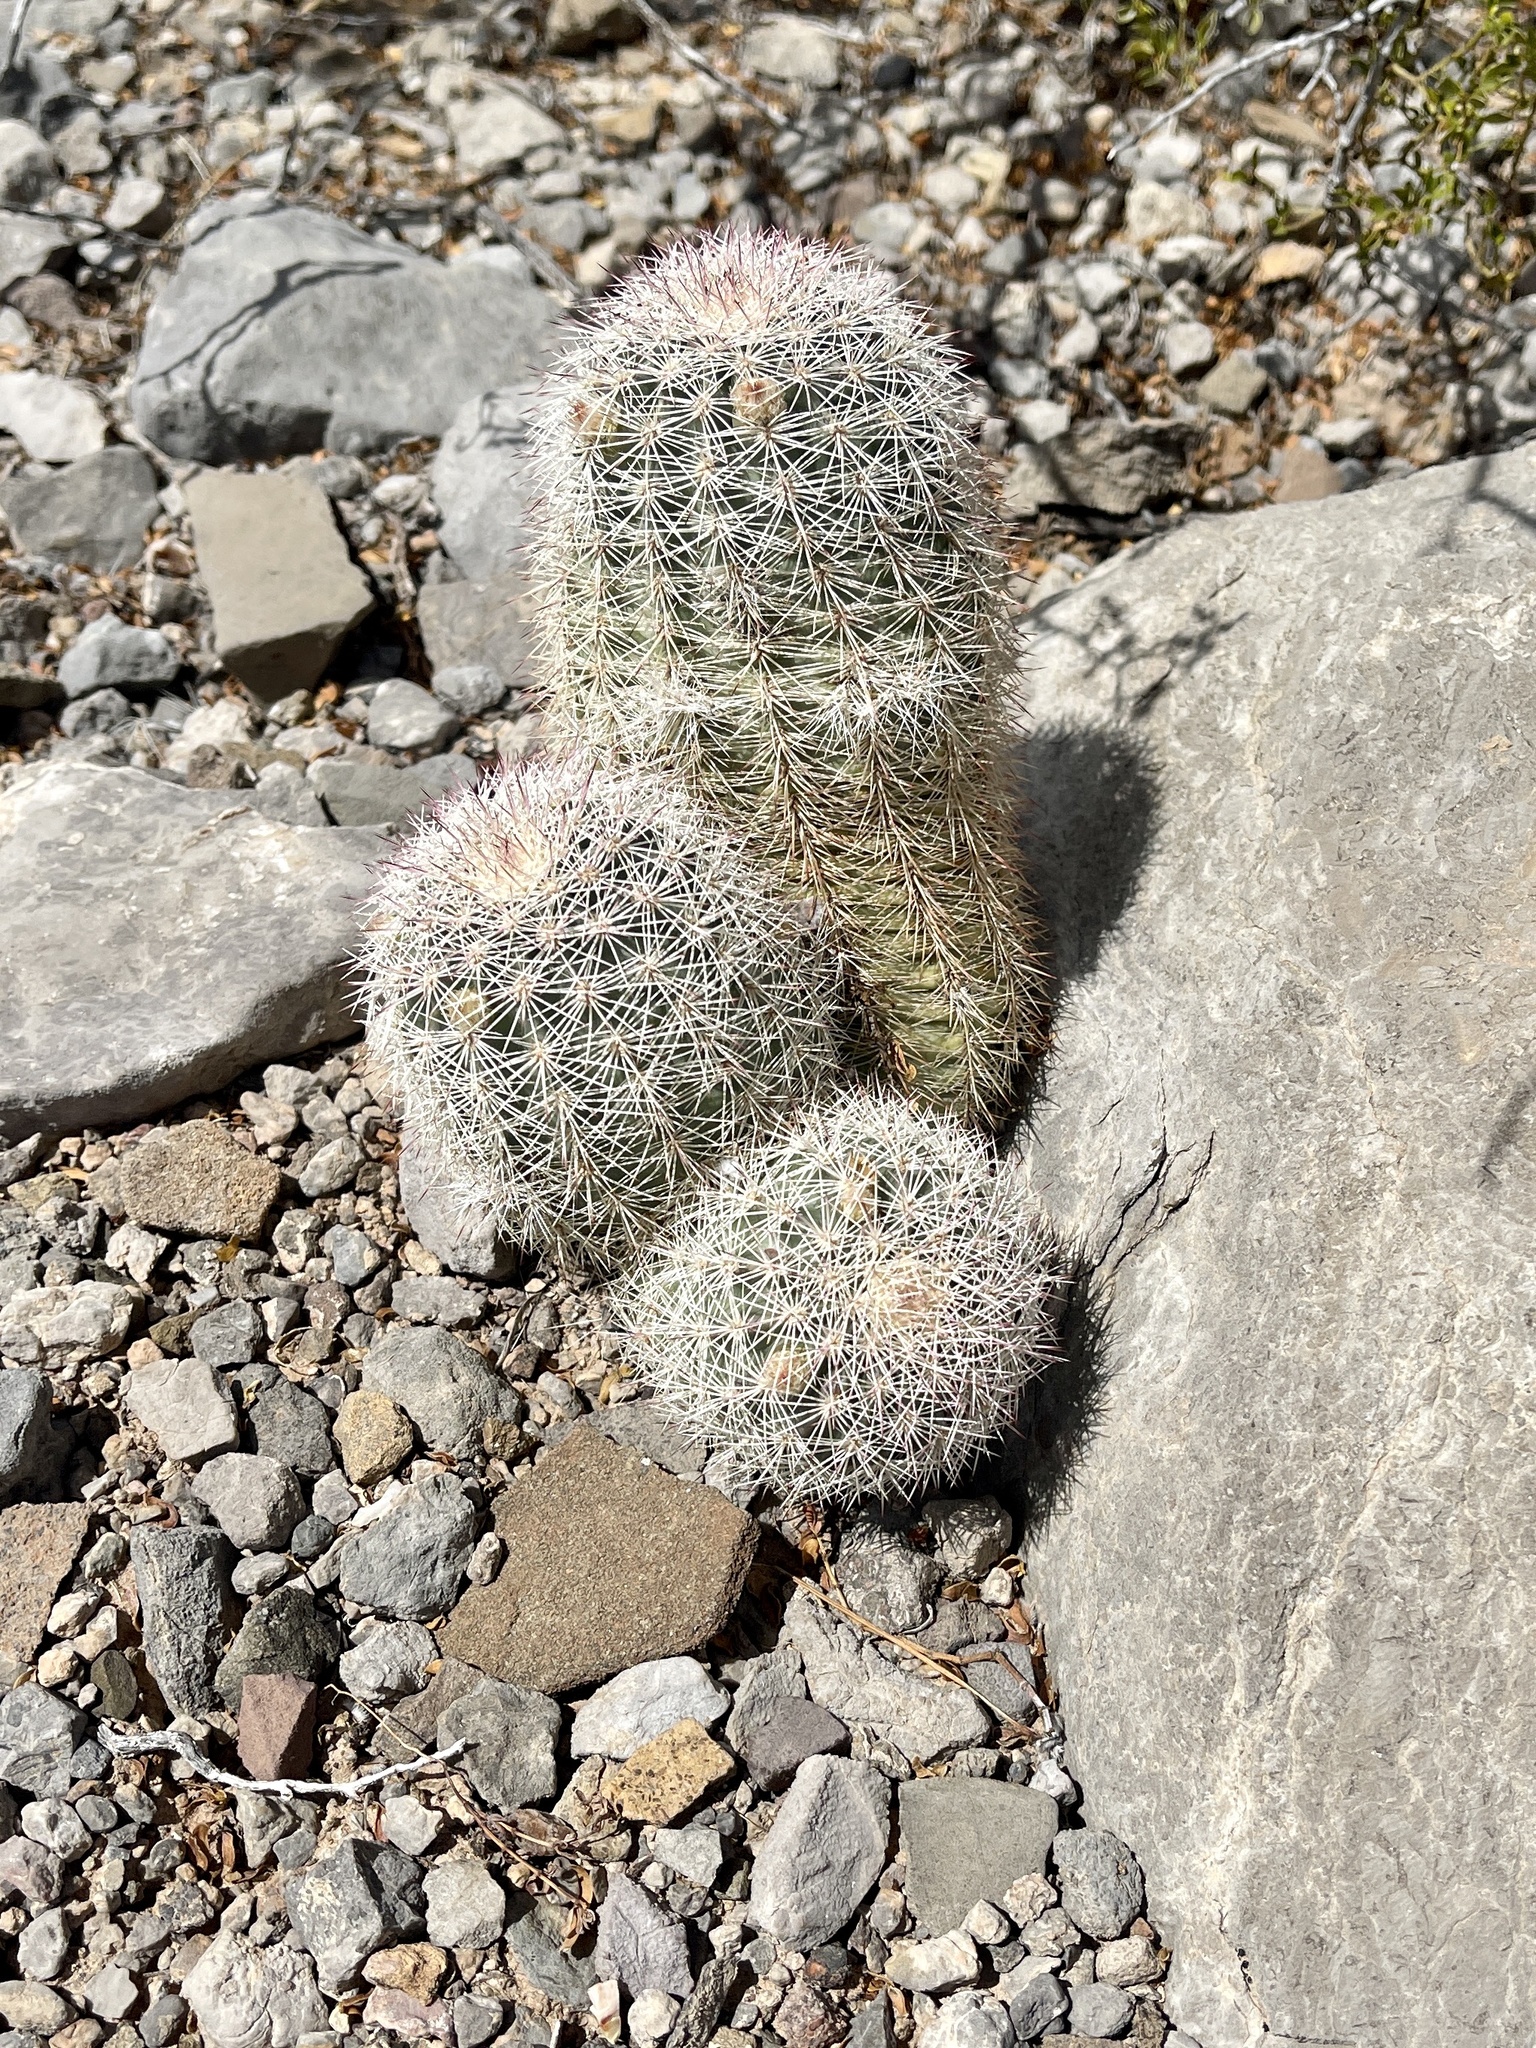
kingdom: Plantae
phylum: Tracheophyta
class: Magnoliopsida
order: Caryophyllales
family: Cactaceae
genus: Echinocereus
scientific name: Echinocereus dasyacanthus
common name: Spiny hedgehog cactus
